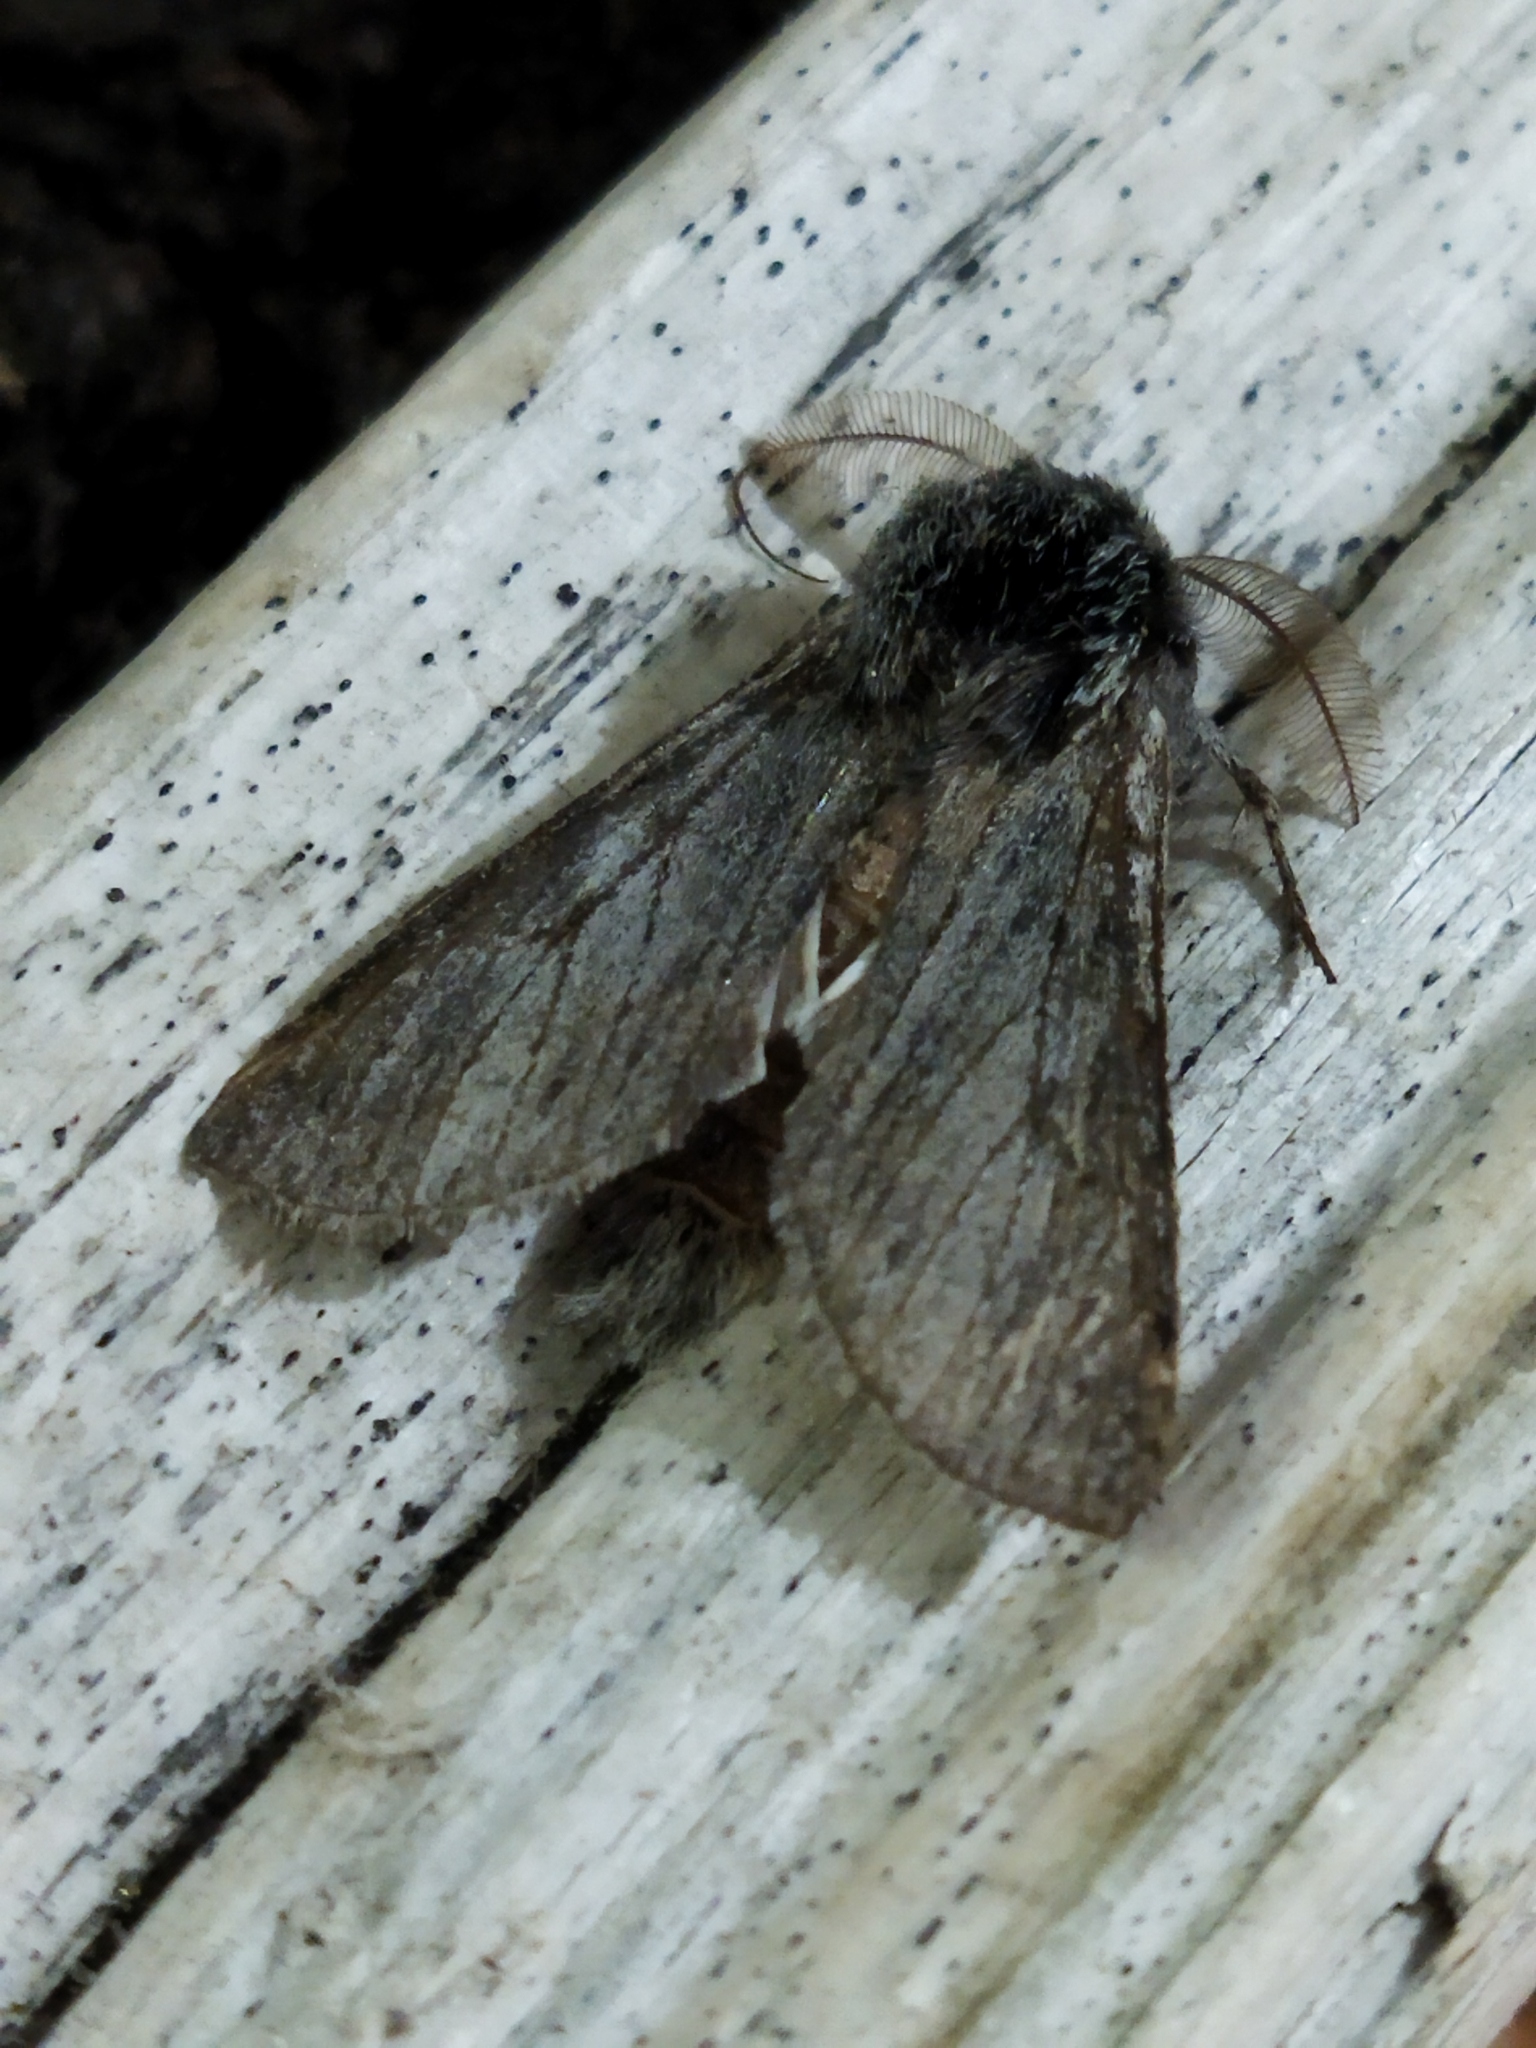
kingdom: Animalia
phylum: Arthropoda
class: Insecta
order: Lepidoptera
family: Notodontidae
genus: Dicranura
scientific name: Dicranura ulmi
